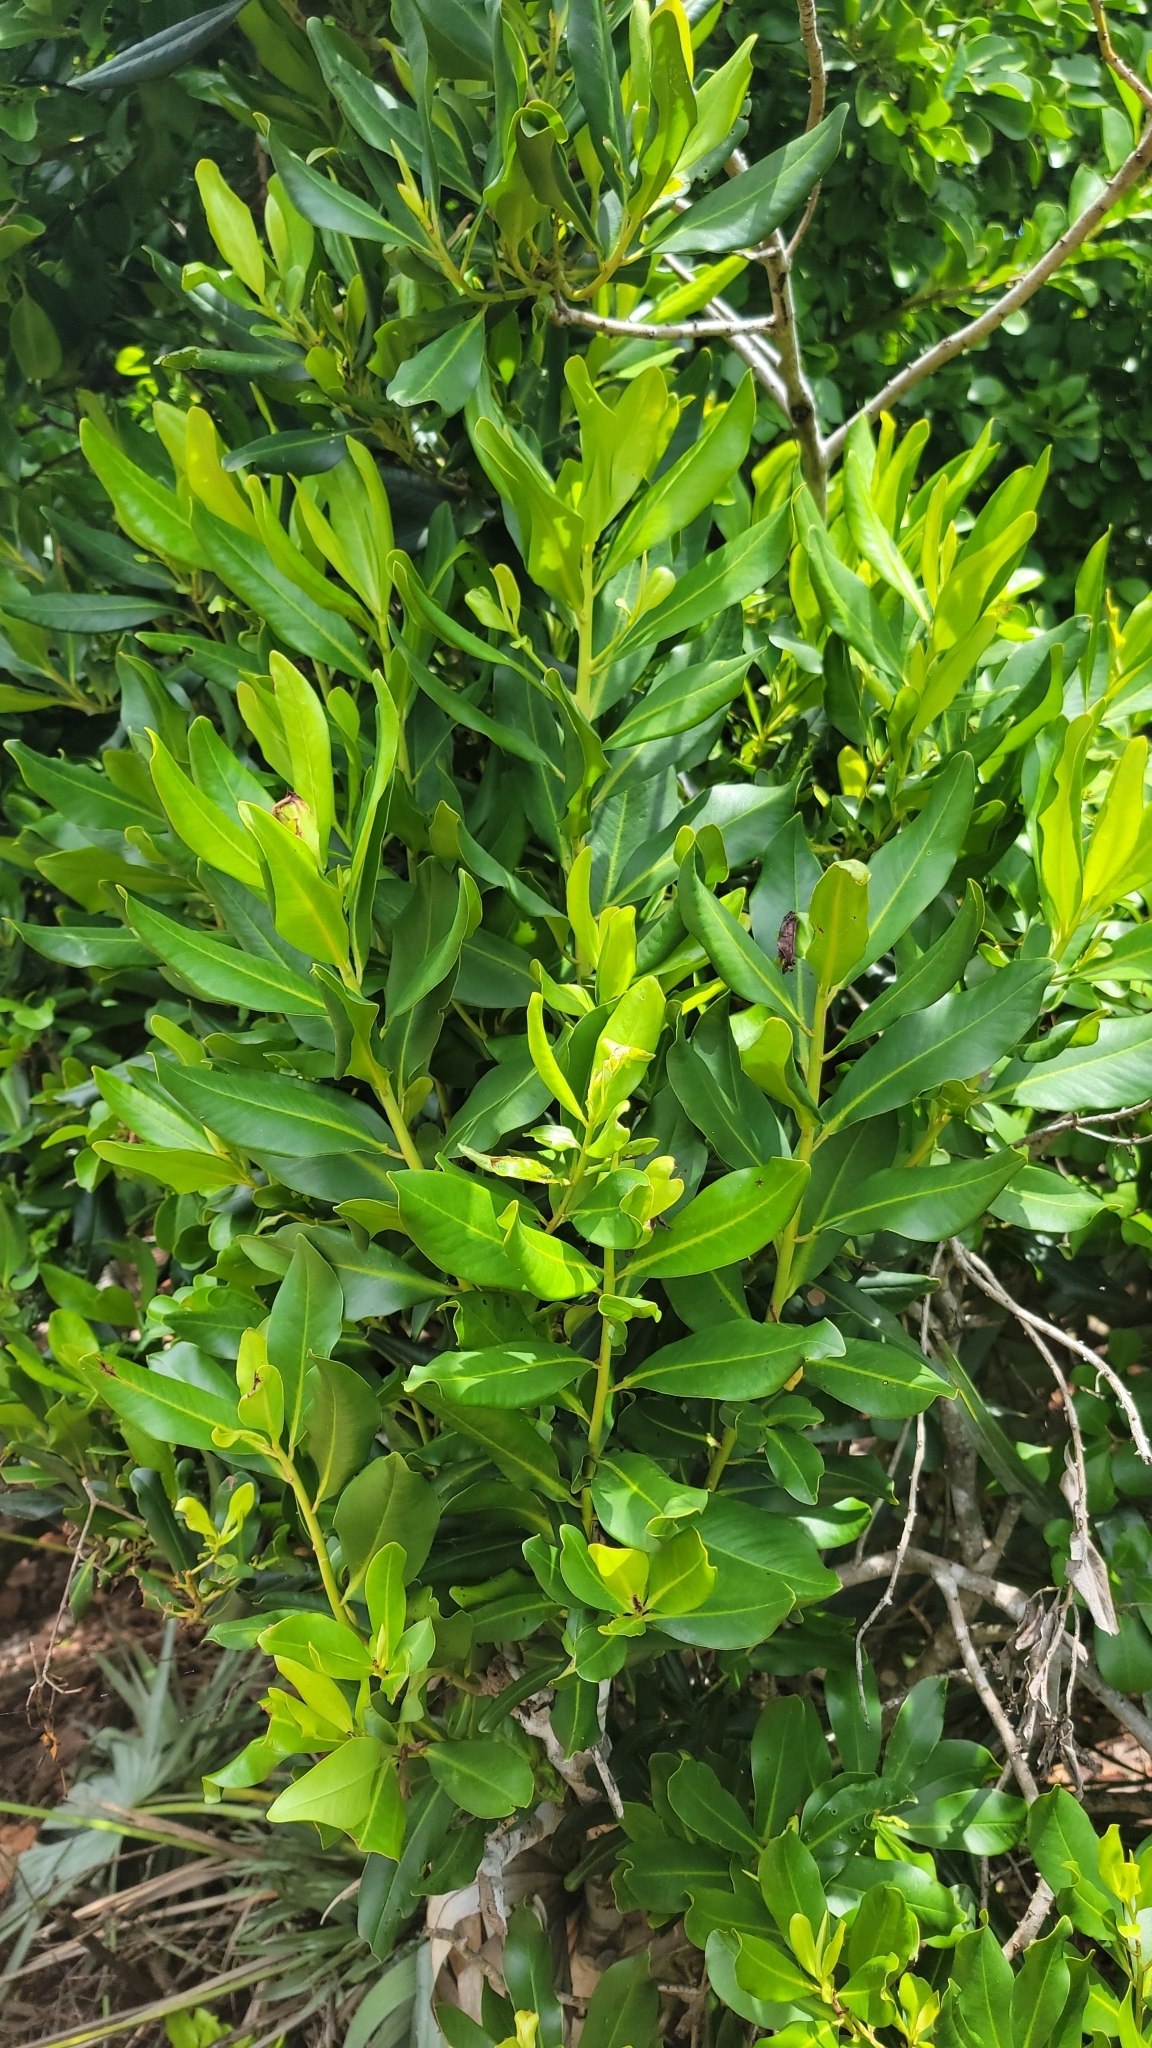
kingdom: Plantae
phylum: Tracheophyta
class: Magnoliopsida
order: Ericales
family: Primulaceae
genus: Myrsine
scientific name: Myrsine floridana
